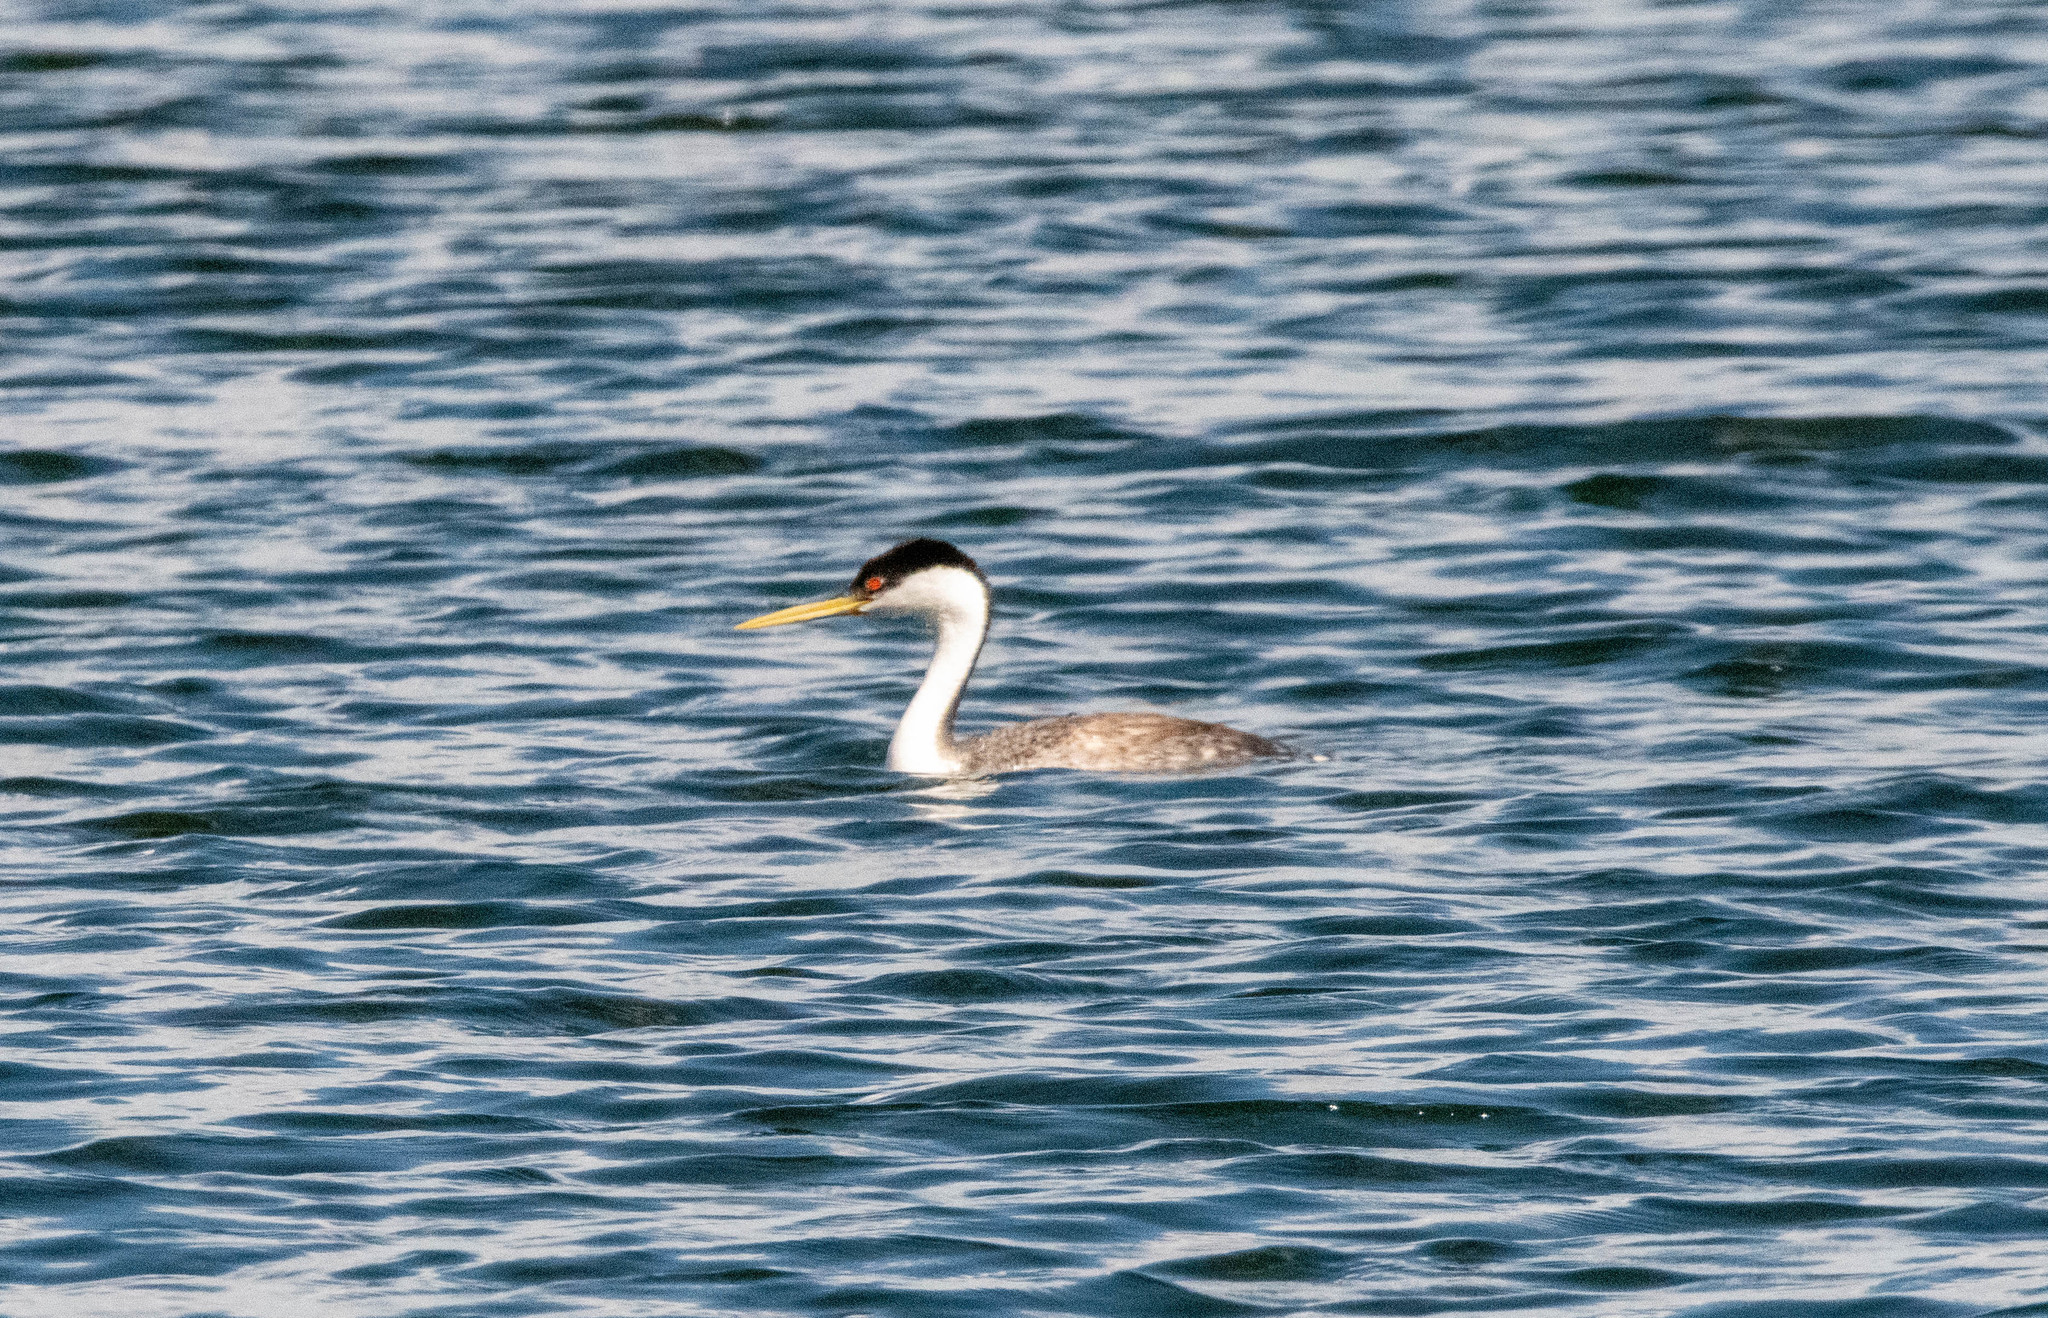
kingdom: Animalia
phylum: Chordata
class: Aves
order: Podicipediformes
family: Podicipedidae
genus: Aechmophorus
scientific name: Aechmophorus occidentalis
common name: Western grebe
